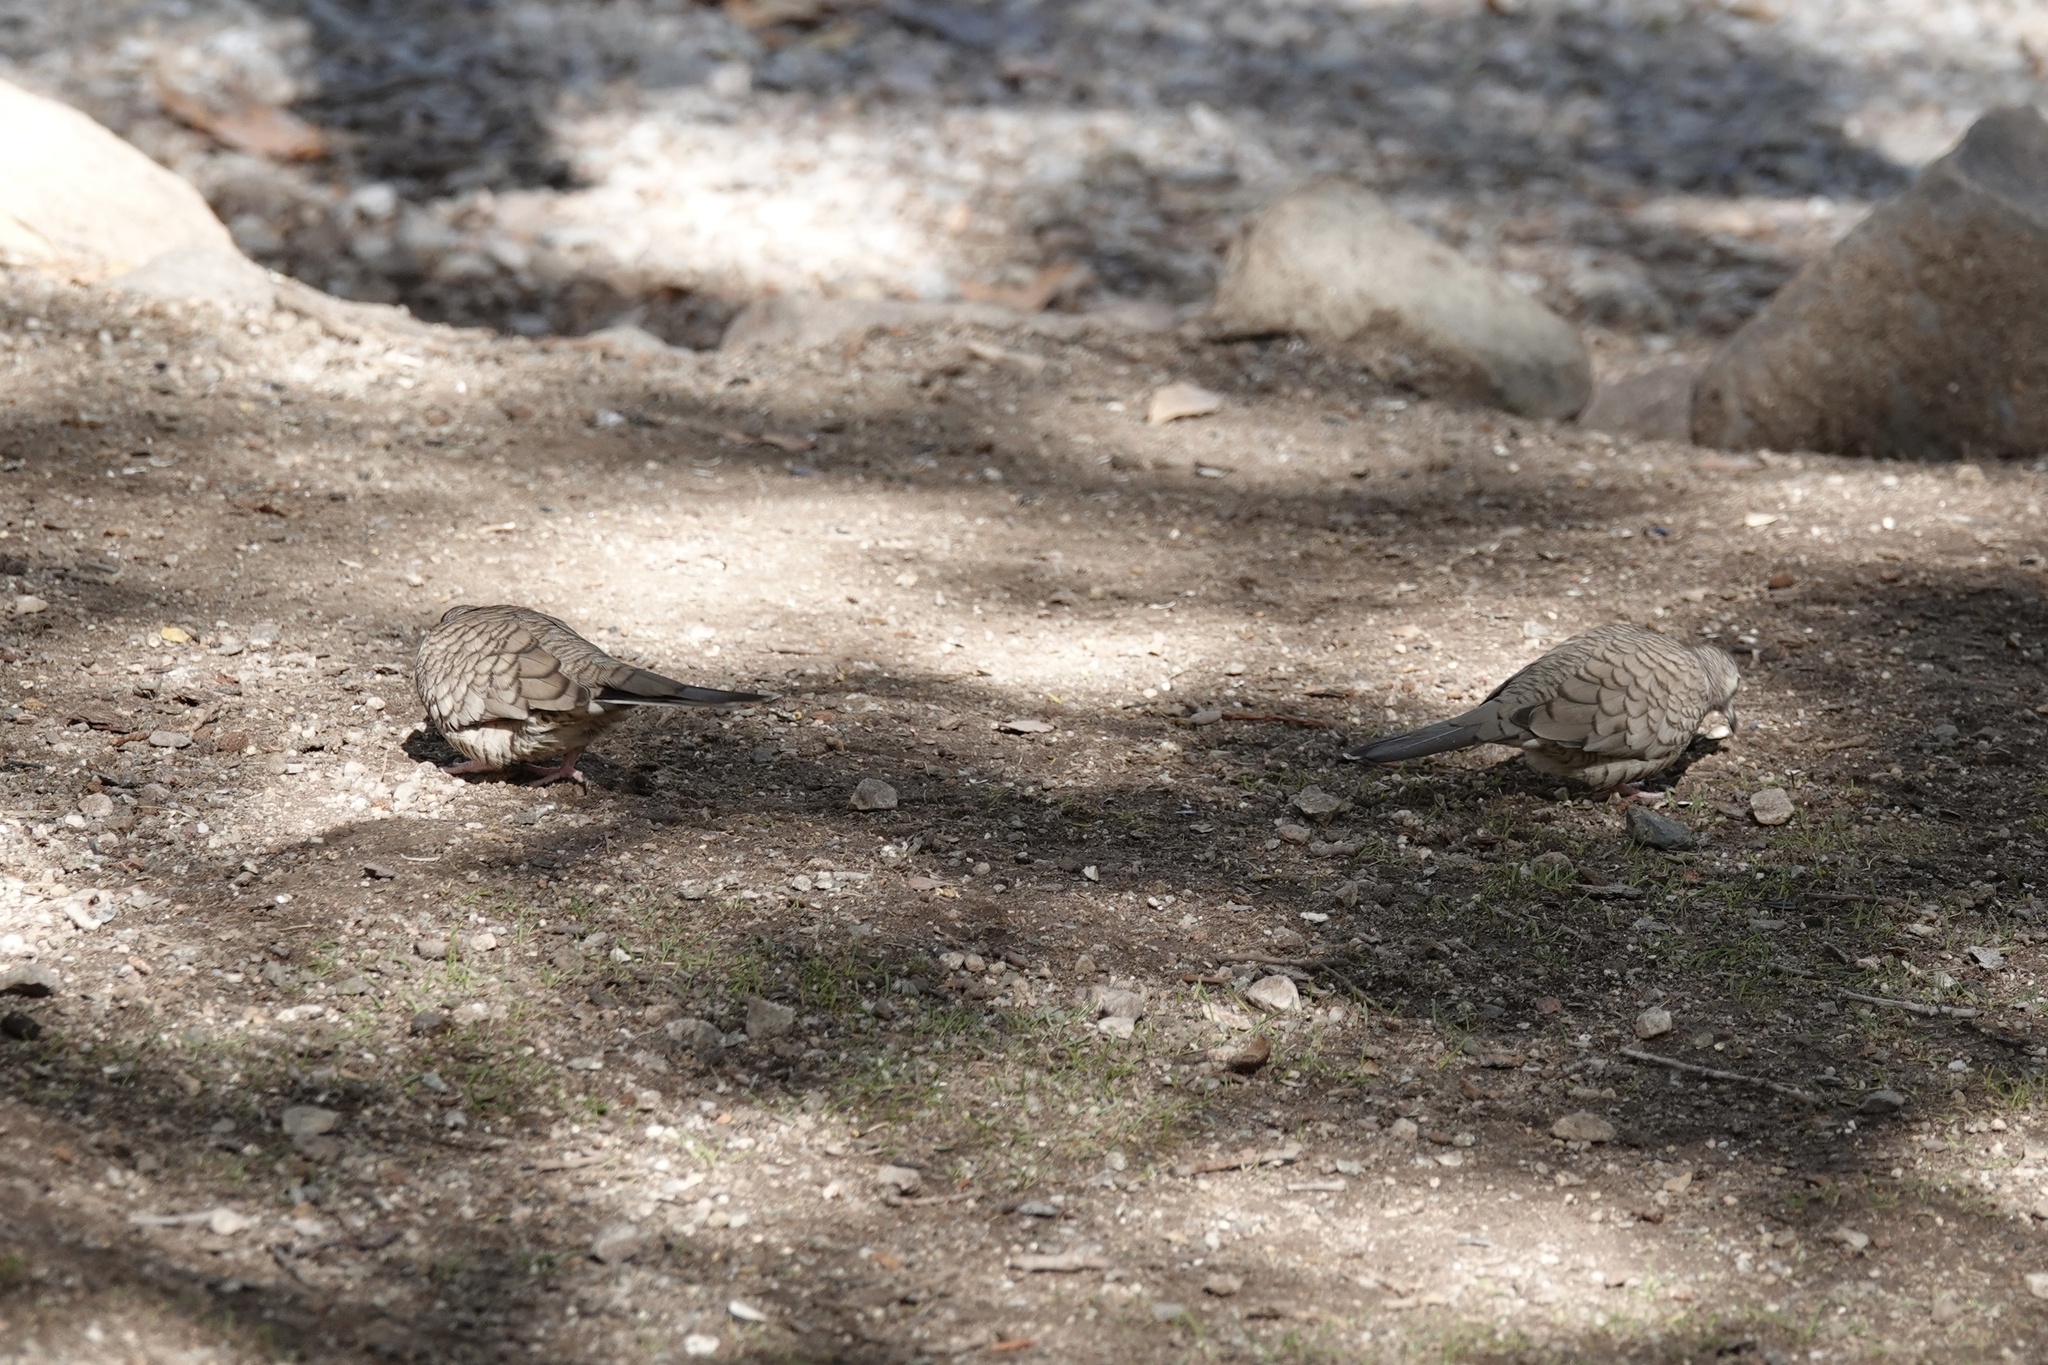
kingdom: Animalia
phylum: Chordata
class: Aves
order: Columbiformes
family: Columbidae
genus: Columbina
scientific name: Columbina inca
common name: Inca dove
